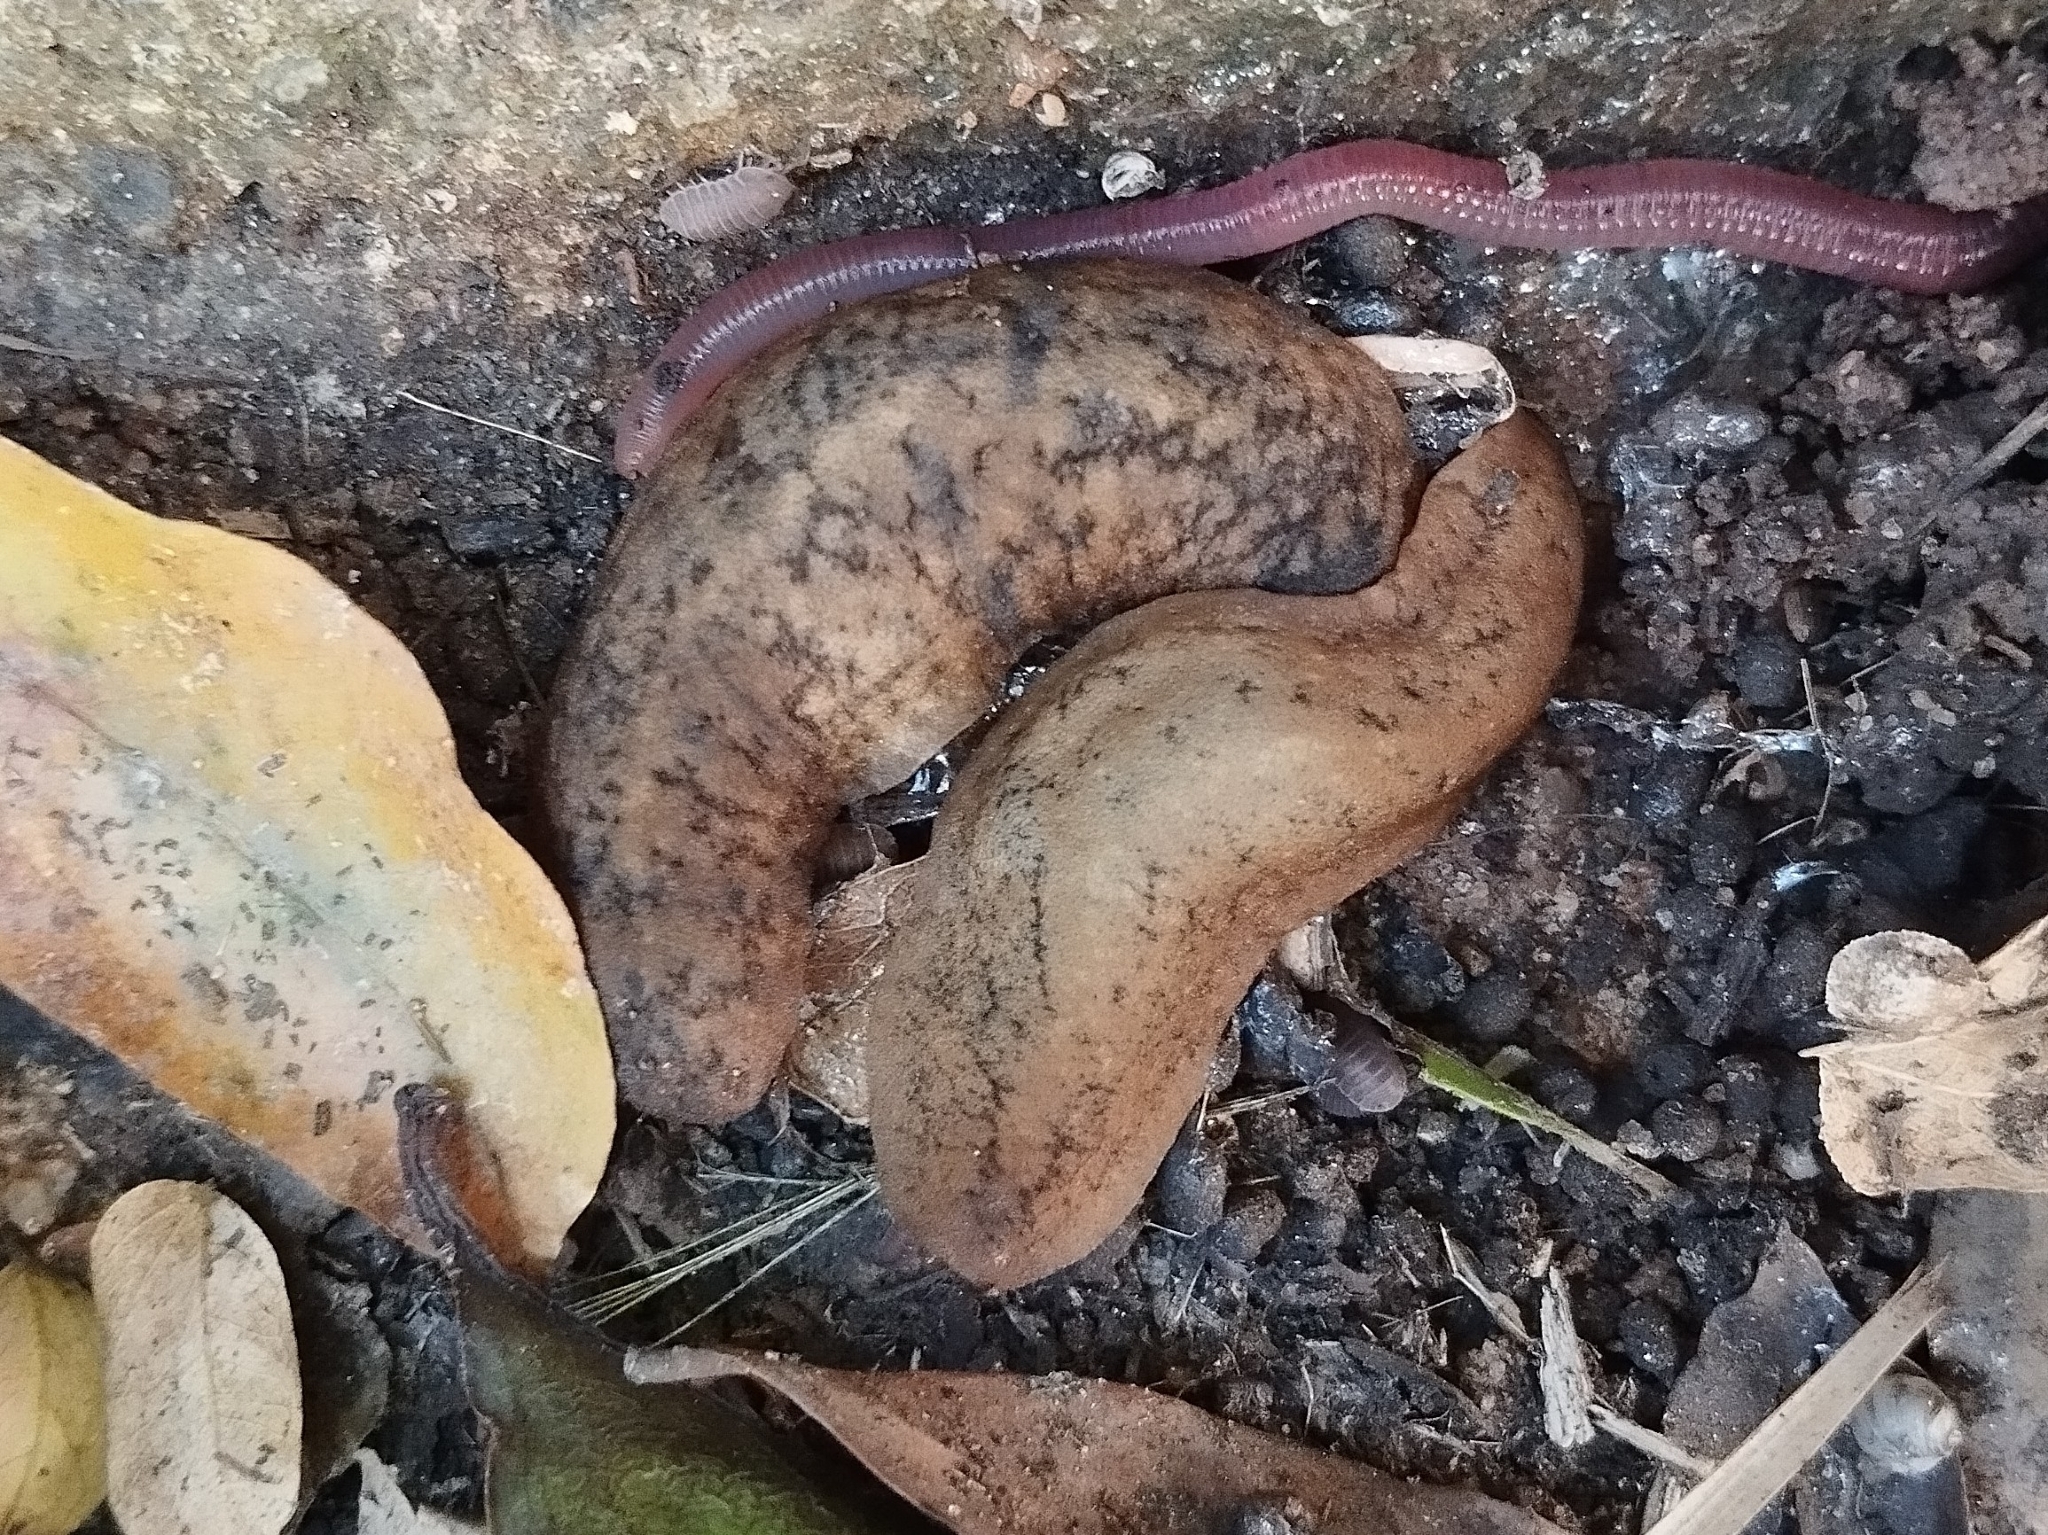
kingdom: Animalia
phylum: Mollusca
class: Gastropoda
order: Systellommatophora
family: Veronicellidae
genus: Sarasinula
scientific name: Sarasinula linguaeformis
